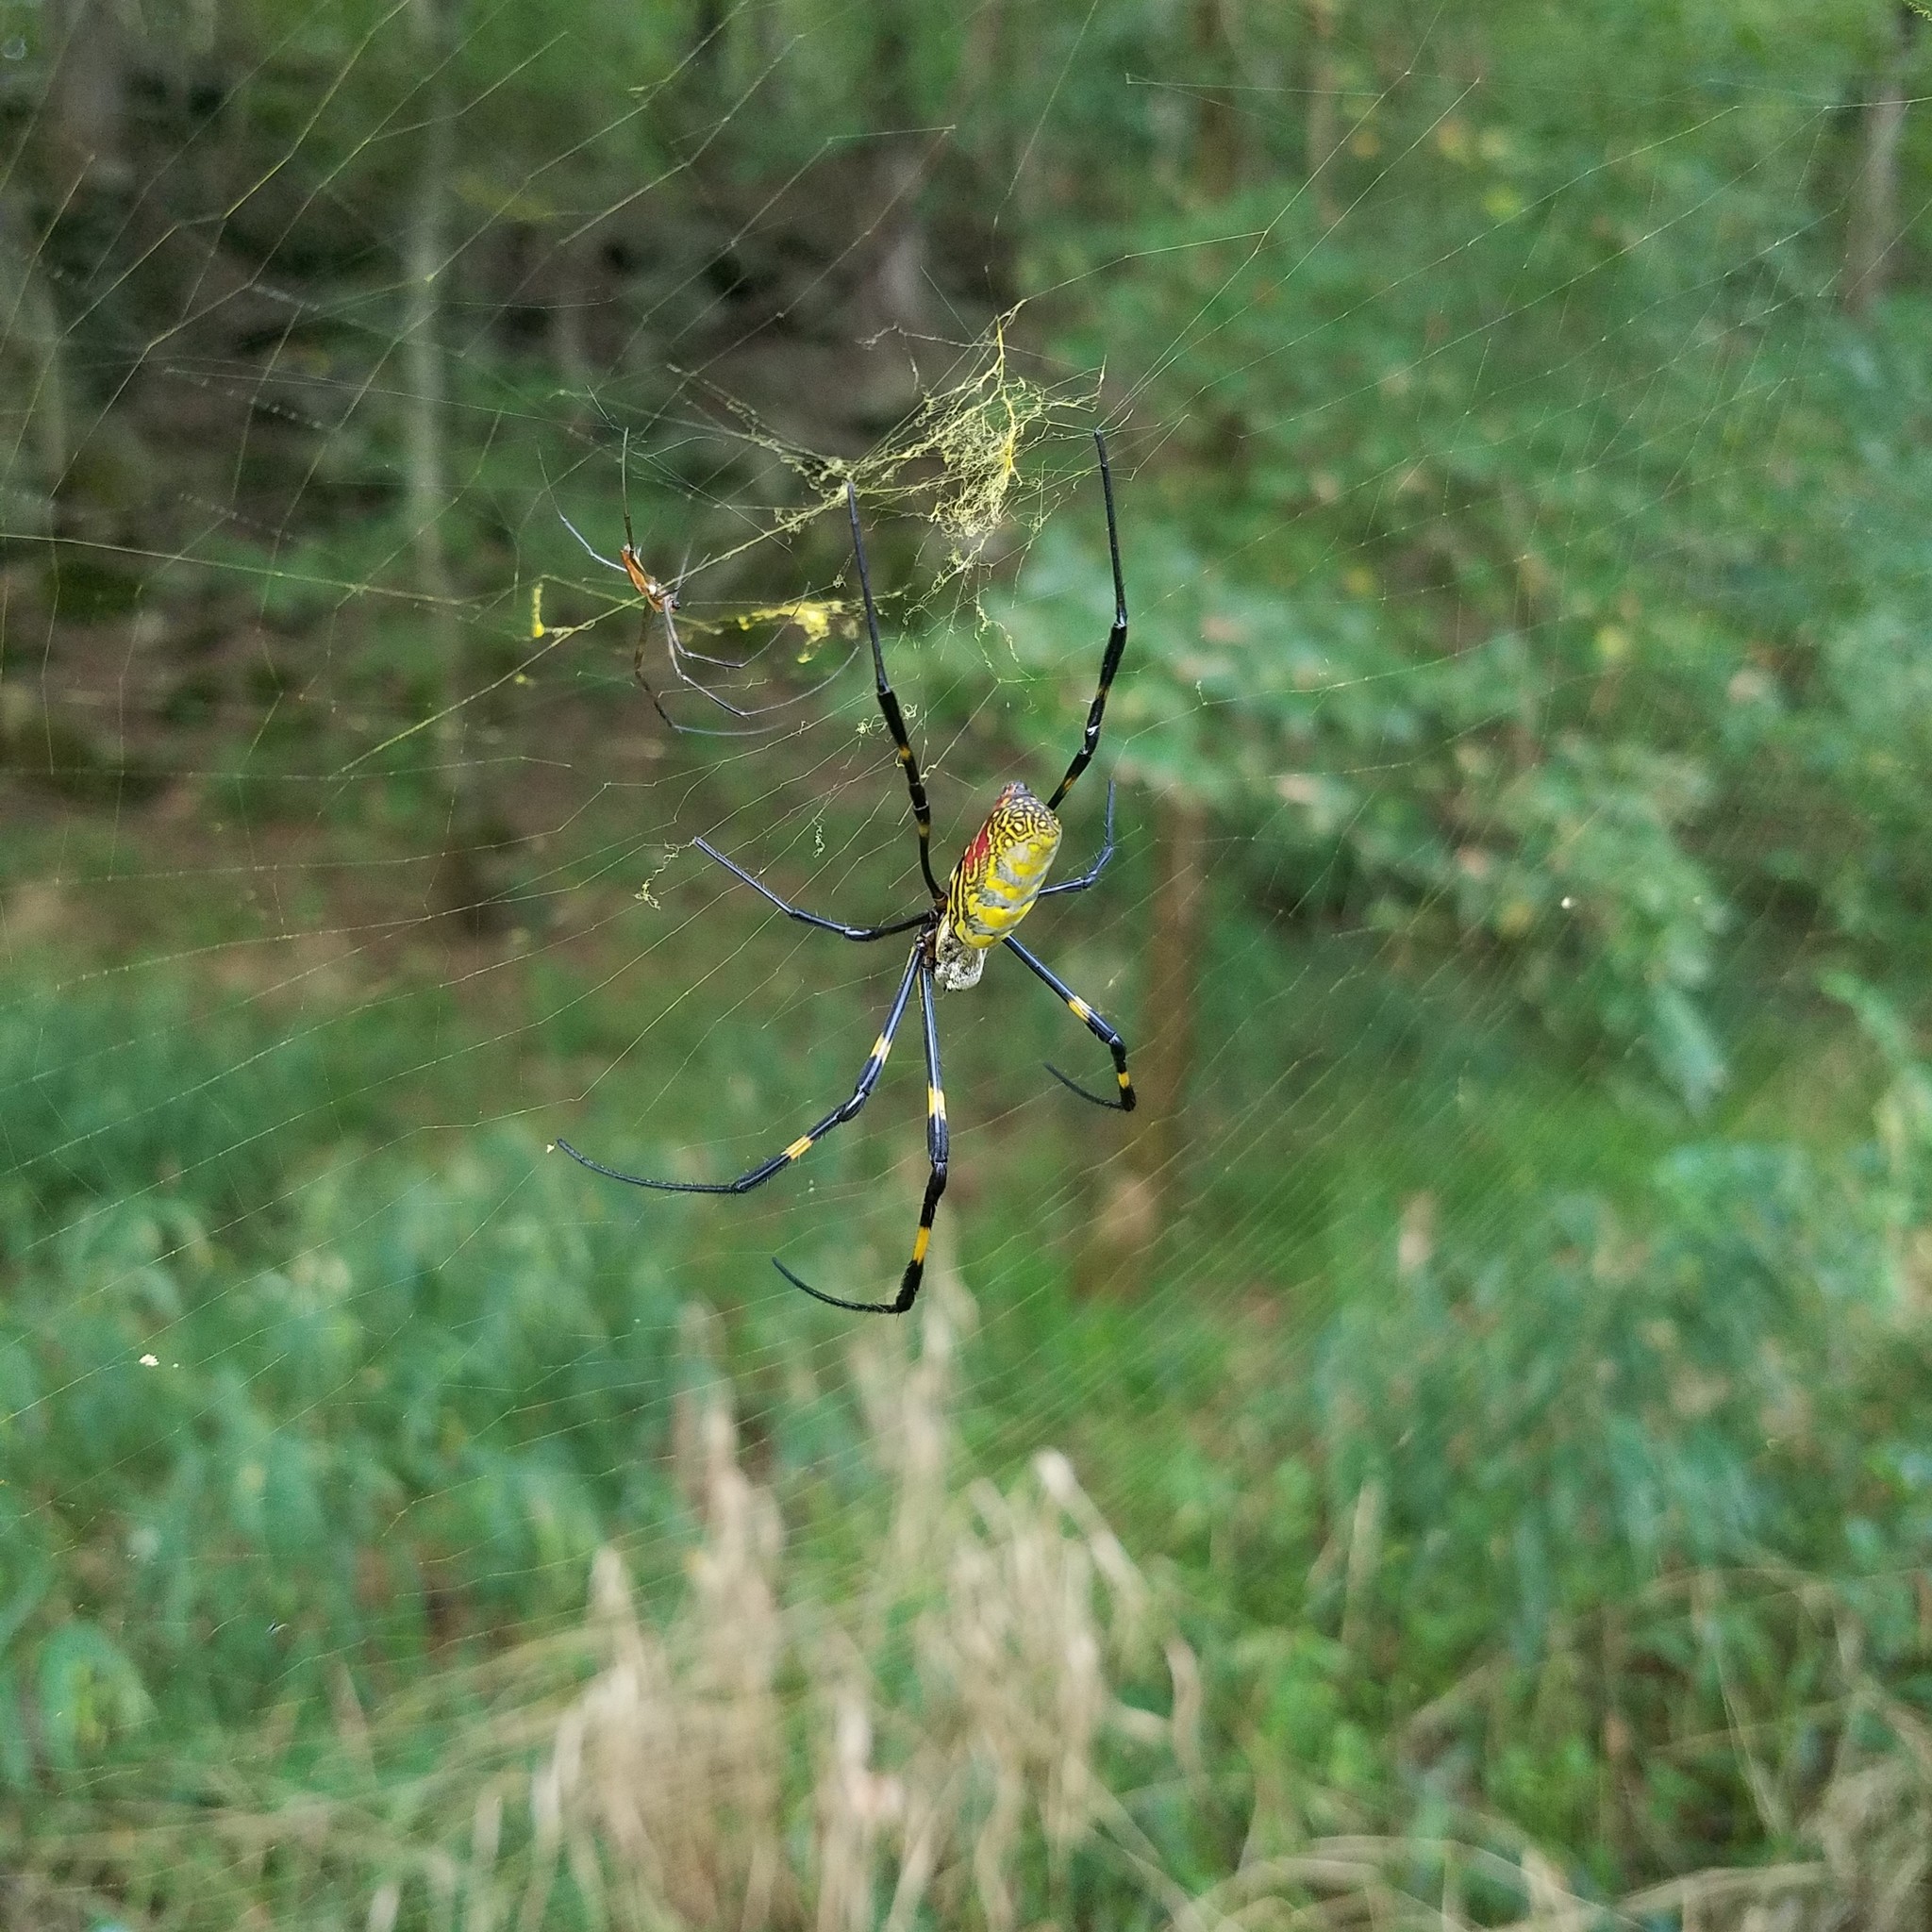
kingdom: Animalia
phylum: Arthropoda
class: Arachnida
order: Araneae
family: Araneidae
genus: Trichonephila
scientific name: Trichonephila clavata
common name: Jorō spider
